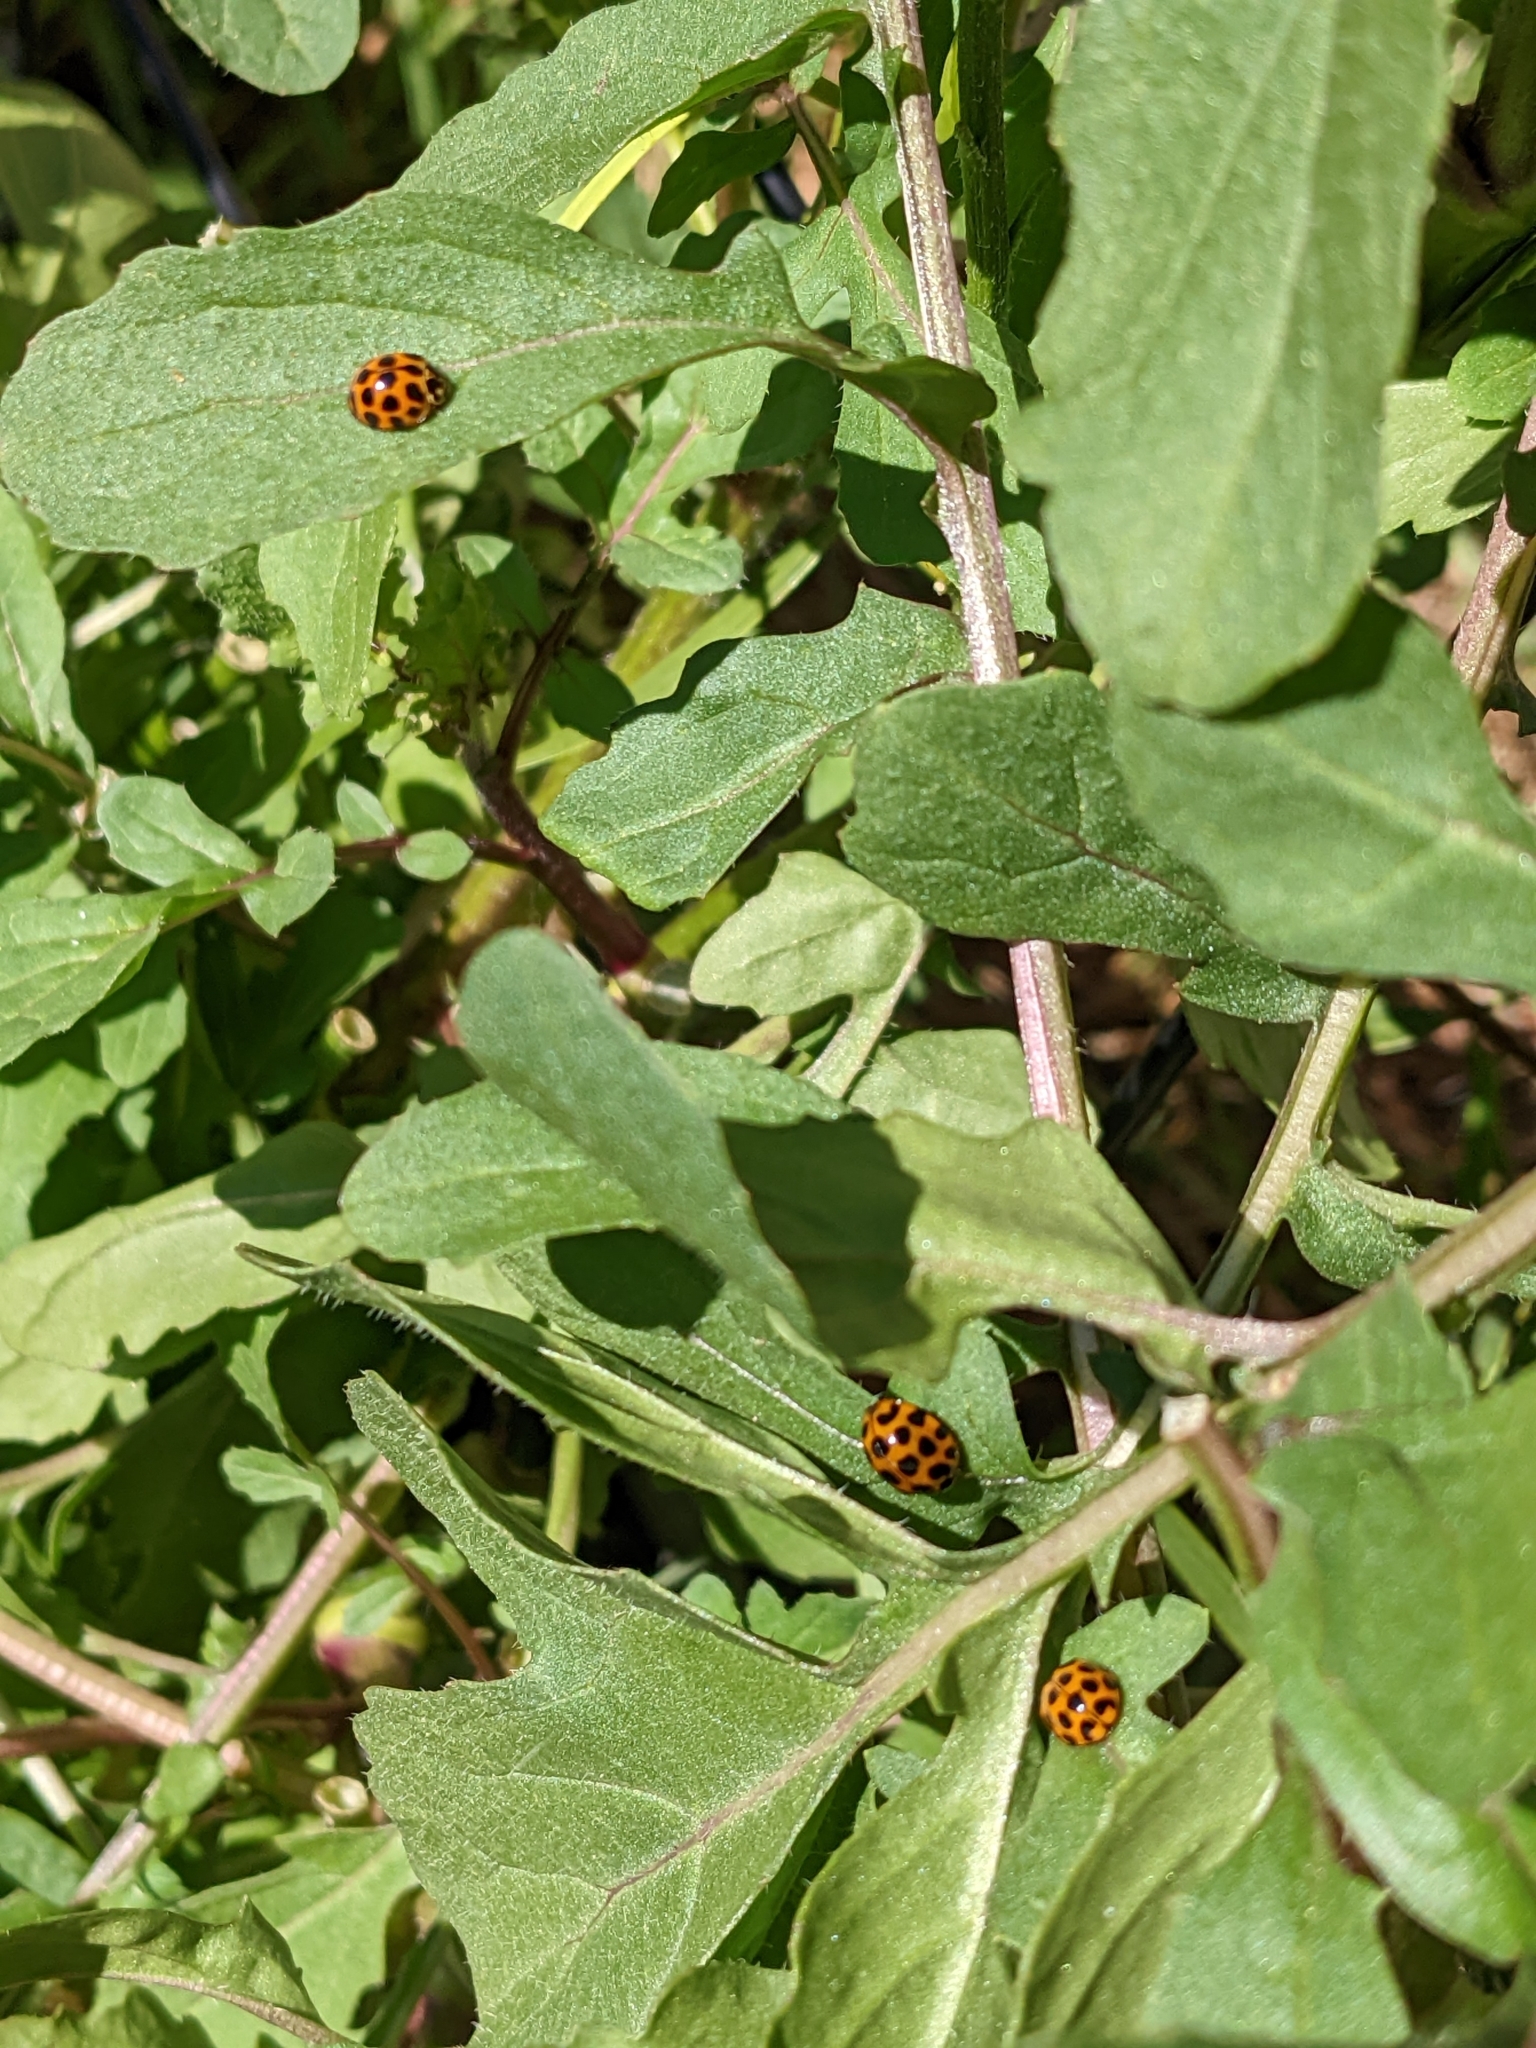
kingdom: Animalia
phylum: Arthropoda
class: Insecta
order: Coleoptera
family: Coccinellidae
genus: Harmonia
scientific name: Harmonia conformis
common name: Common spotted ladybird beetle
